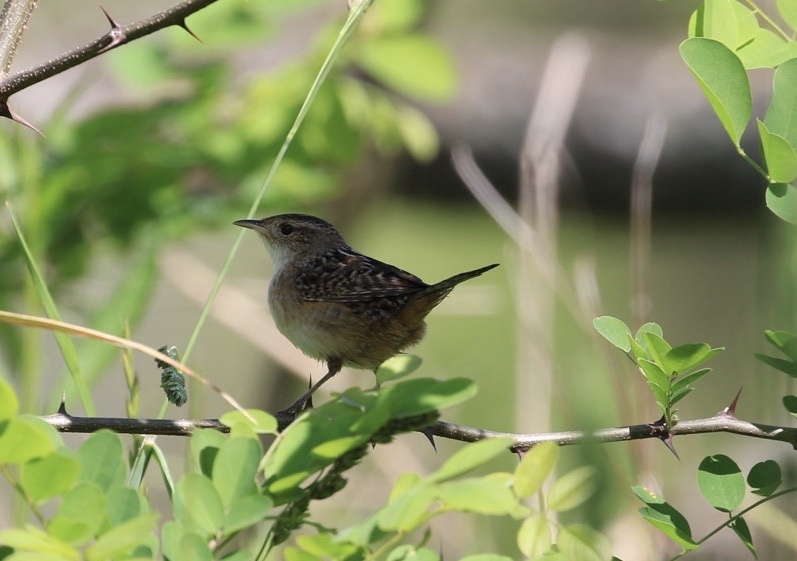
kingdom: Animalia
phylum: Chordata
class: Aves
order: Passeriformes
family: Troglodytidae
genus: Cistothorus
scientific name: Cistothorus platensis
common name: Sedge wren
